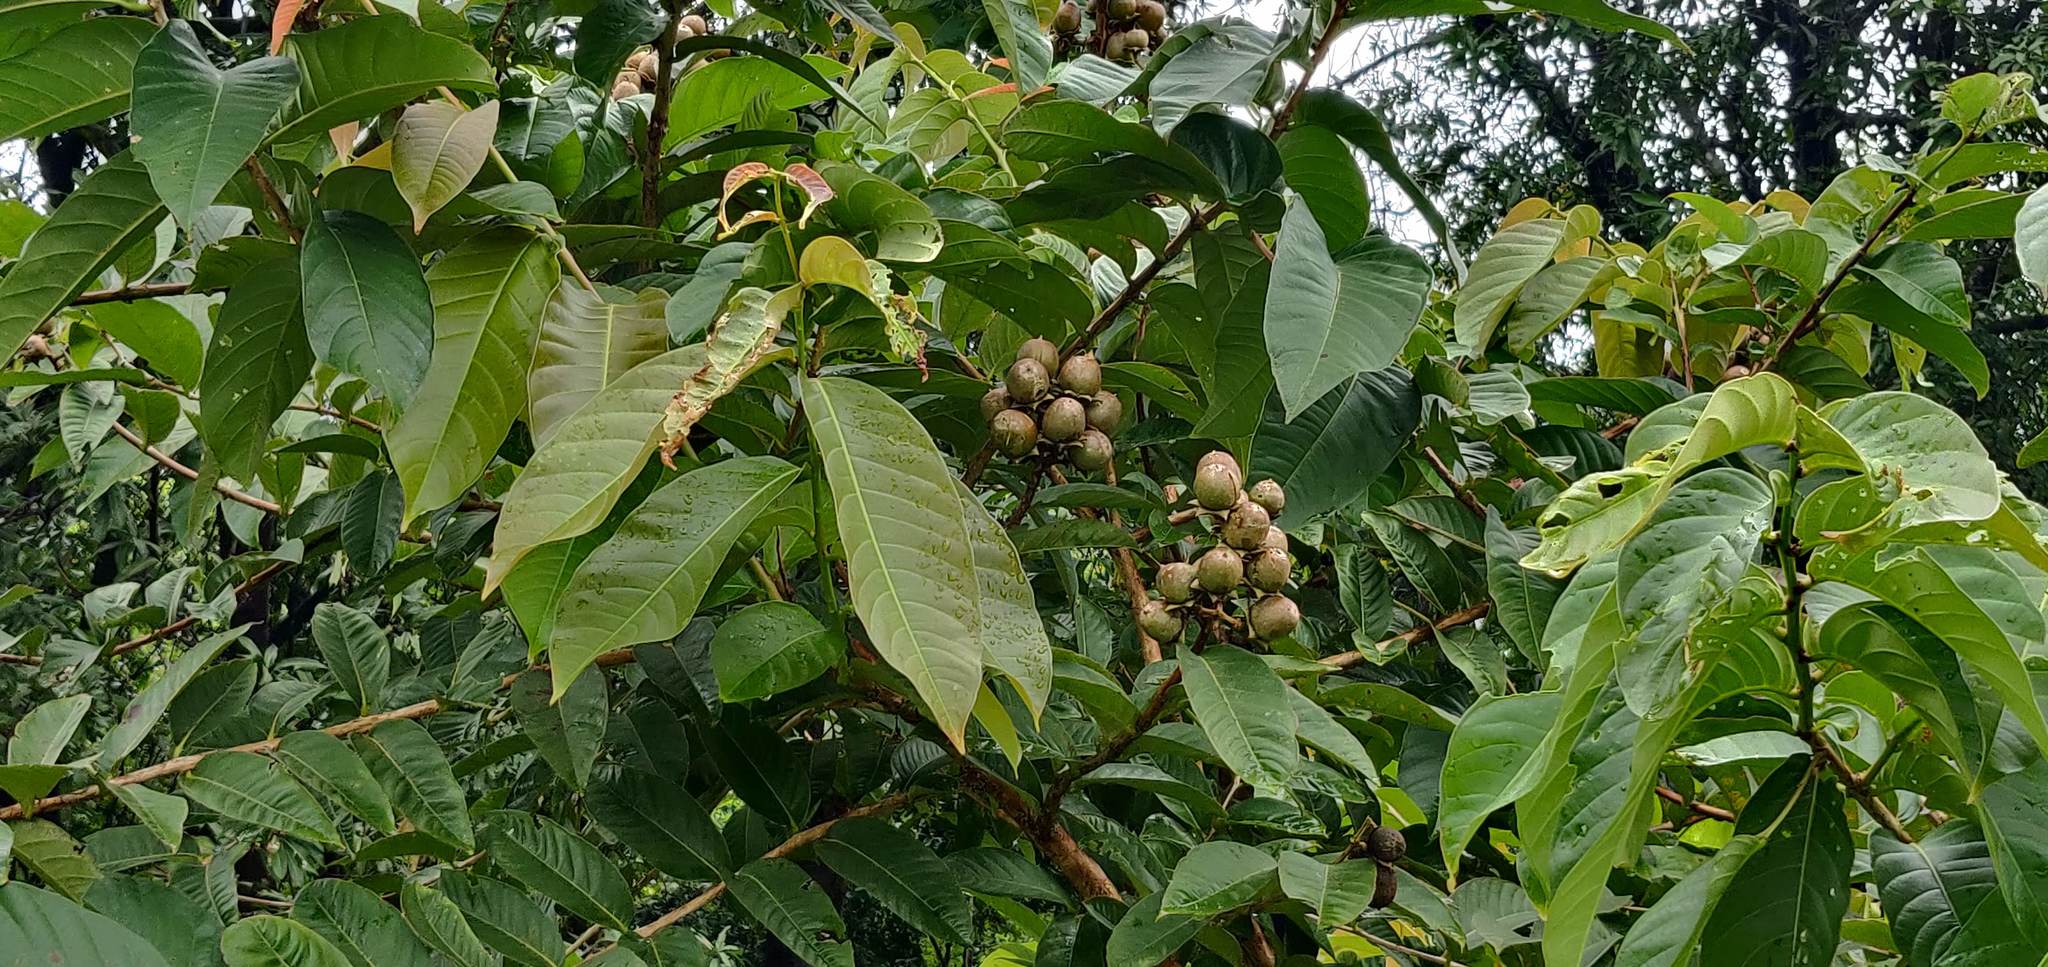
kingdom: Plantae
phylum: Tracheophyta
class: Magnoliopsida
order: Myrtales
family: Lythraceae
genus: Lagerstroemia
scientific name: Lagerstroemia speciosa
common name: Queen's crape-myrtle
